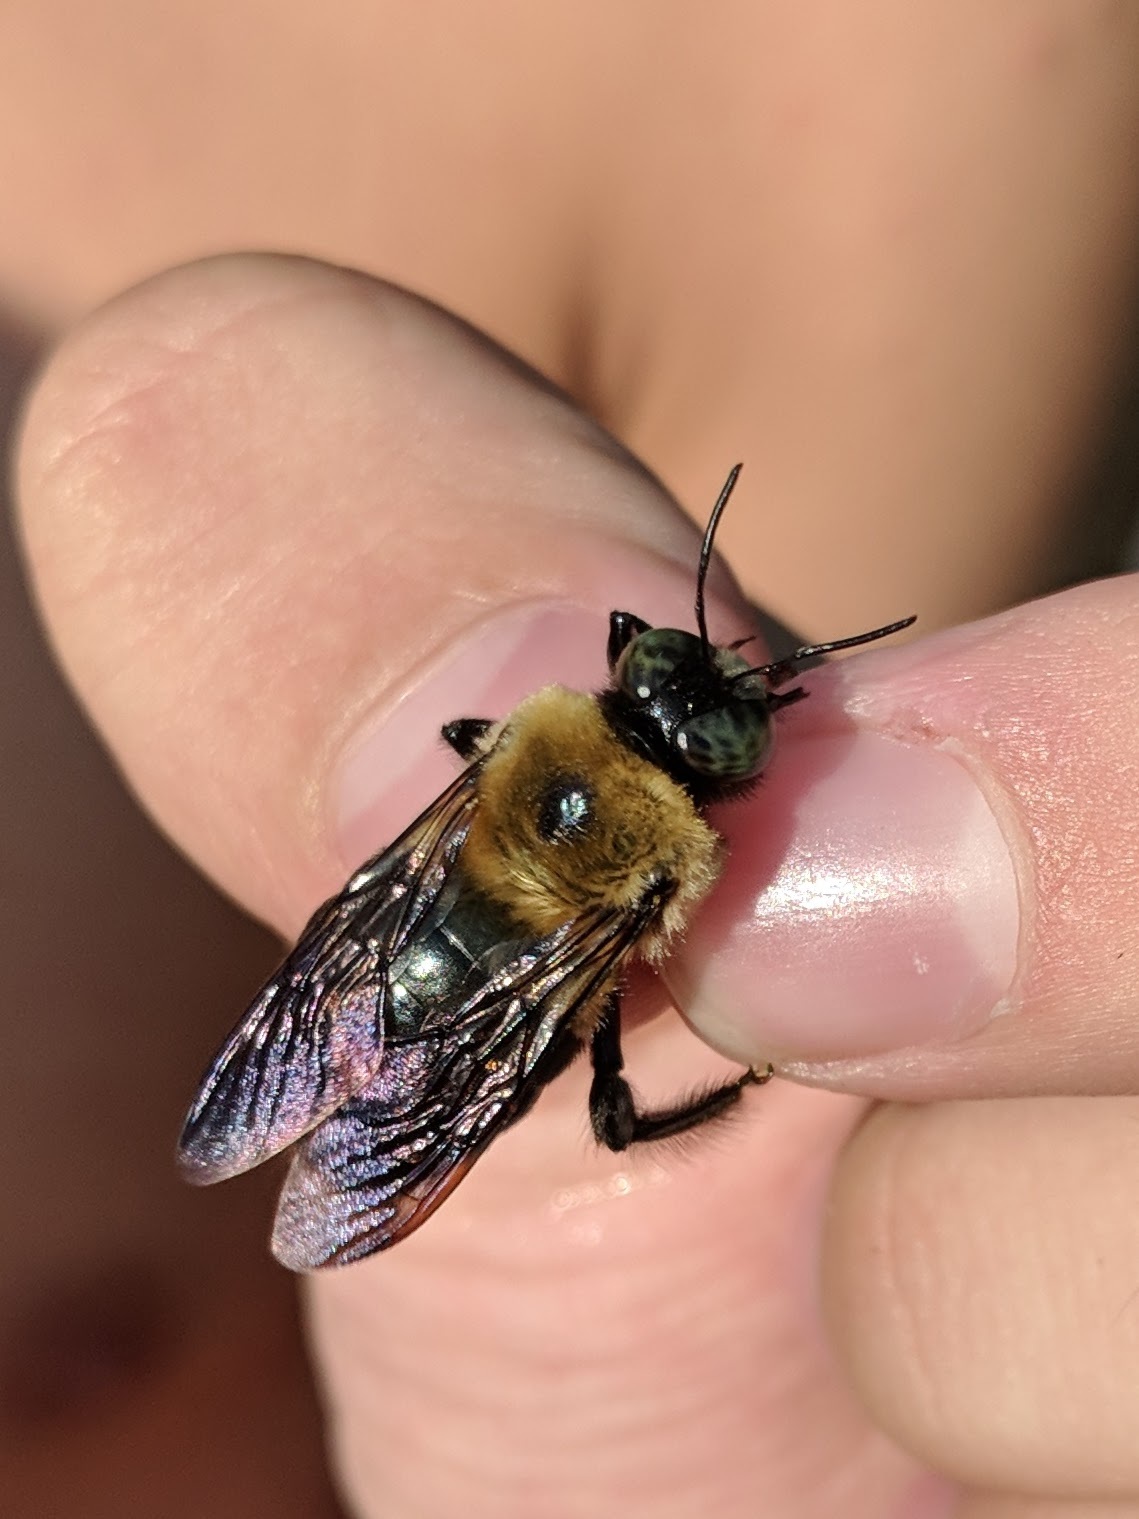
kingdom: Animalia
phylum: Arthropoda
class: Insecta
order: Hymenoptera
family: Apidae
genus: Xylocopa
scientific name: Xylocopa virginica
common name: Carpenter bee
